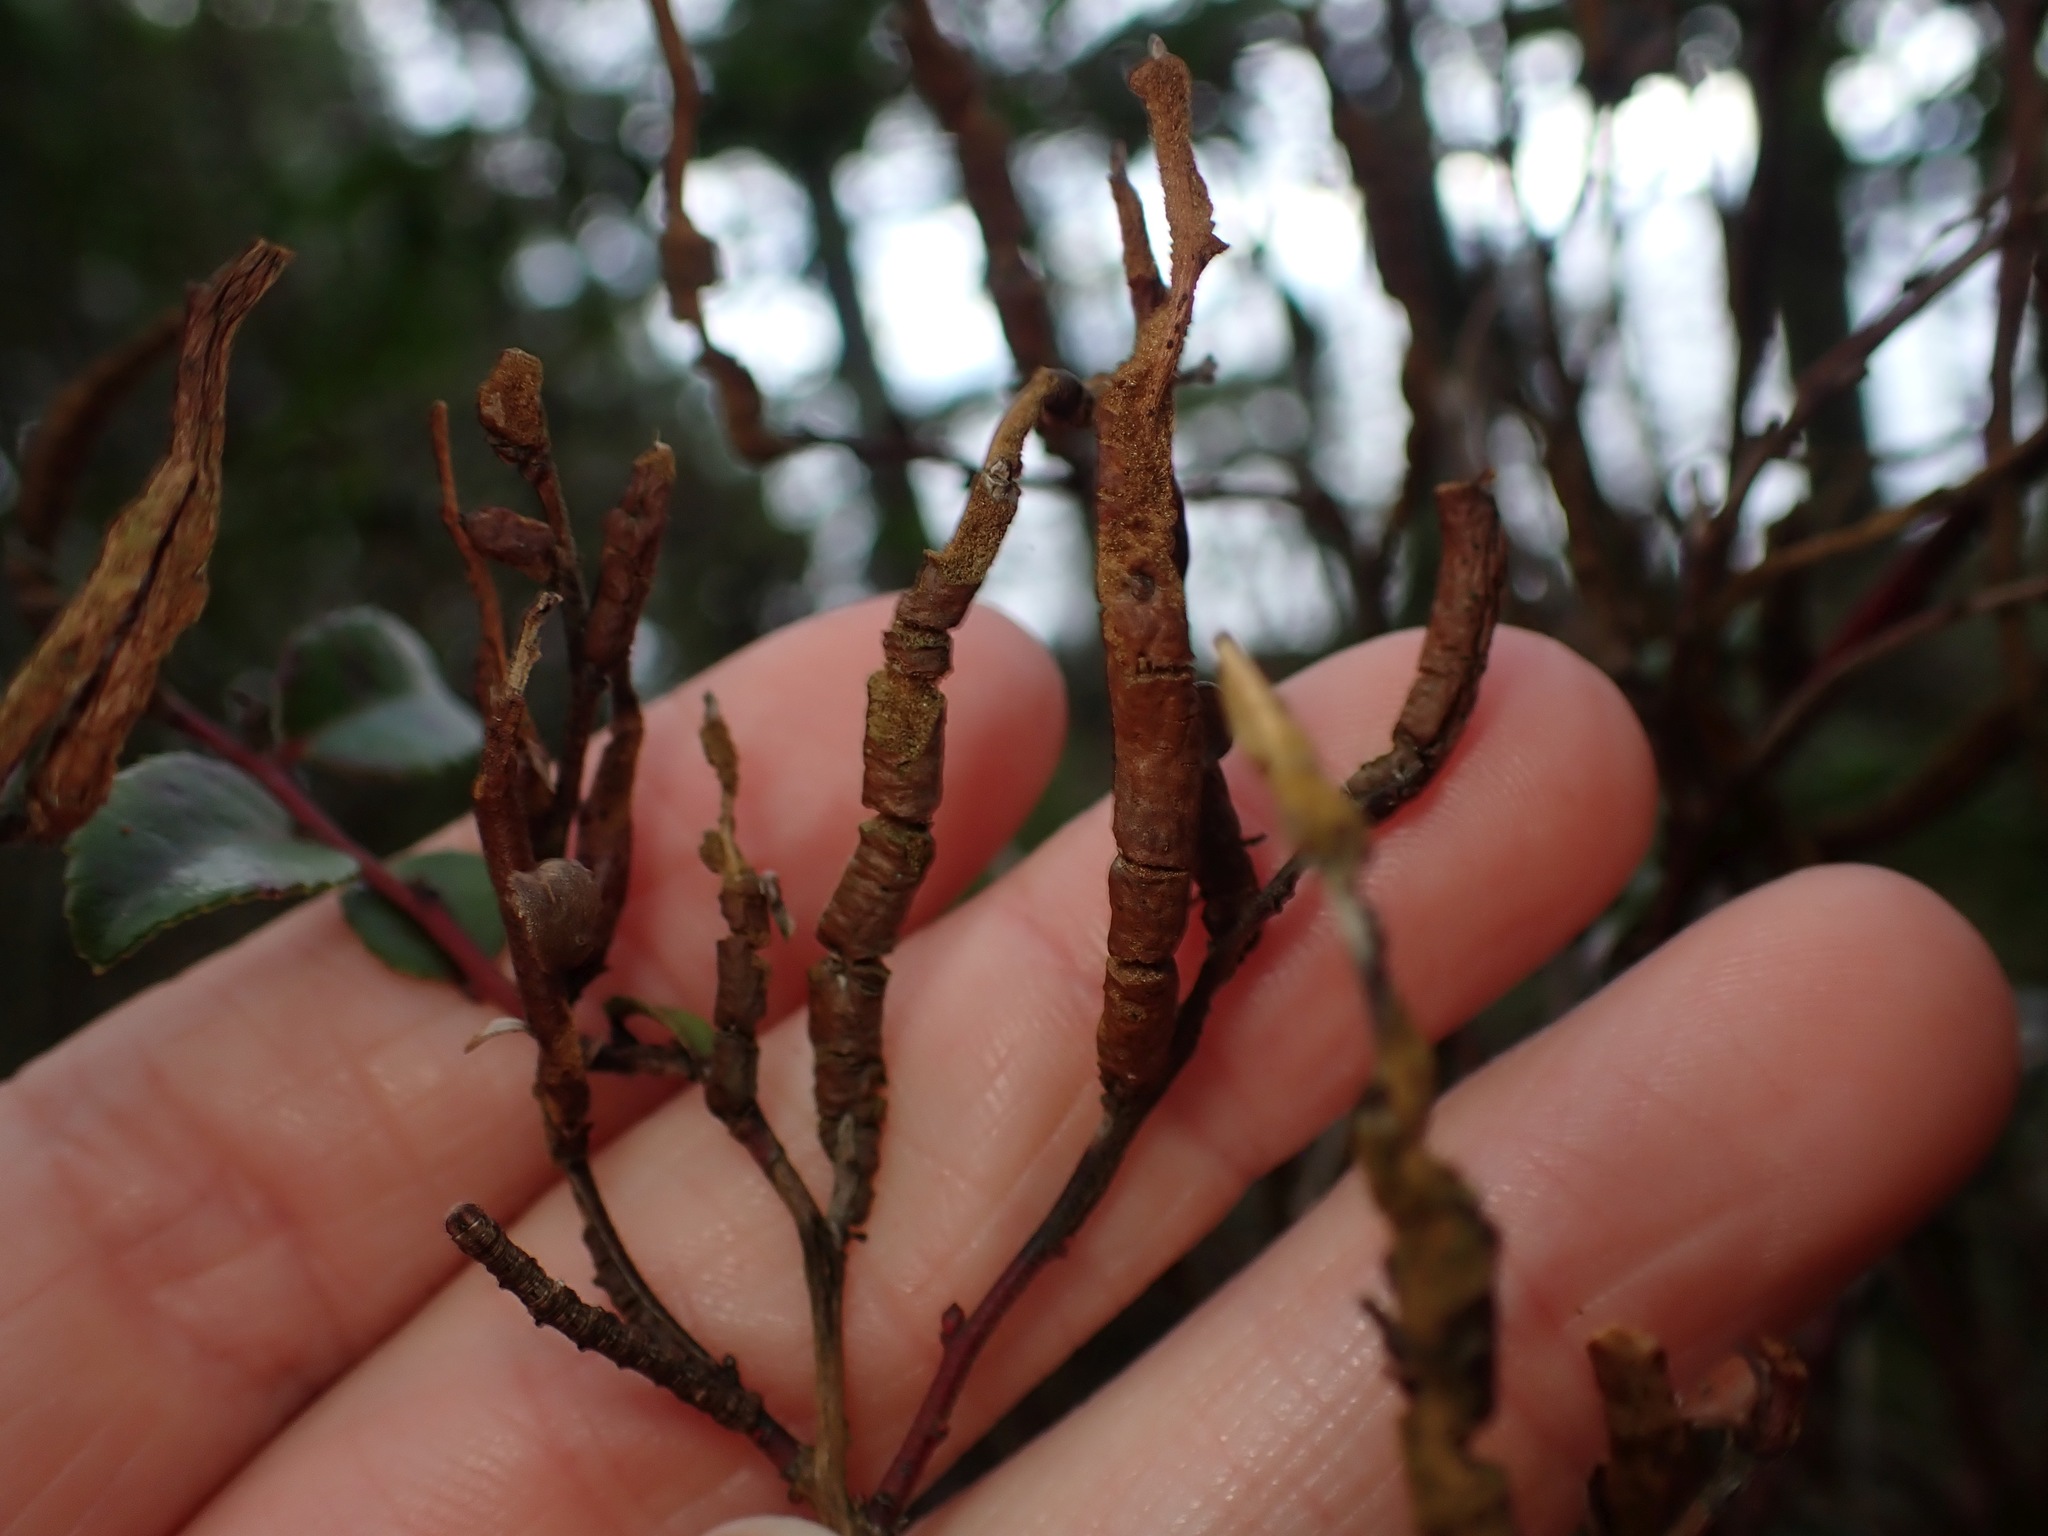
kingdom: Fungi
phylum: Basidiomycota
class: Pucciniomycetes
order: Pucciniales
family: Pucciniastraceae
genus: Calyptospora
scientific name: Calyptospora
